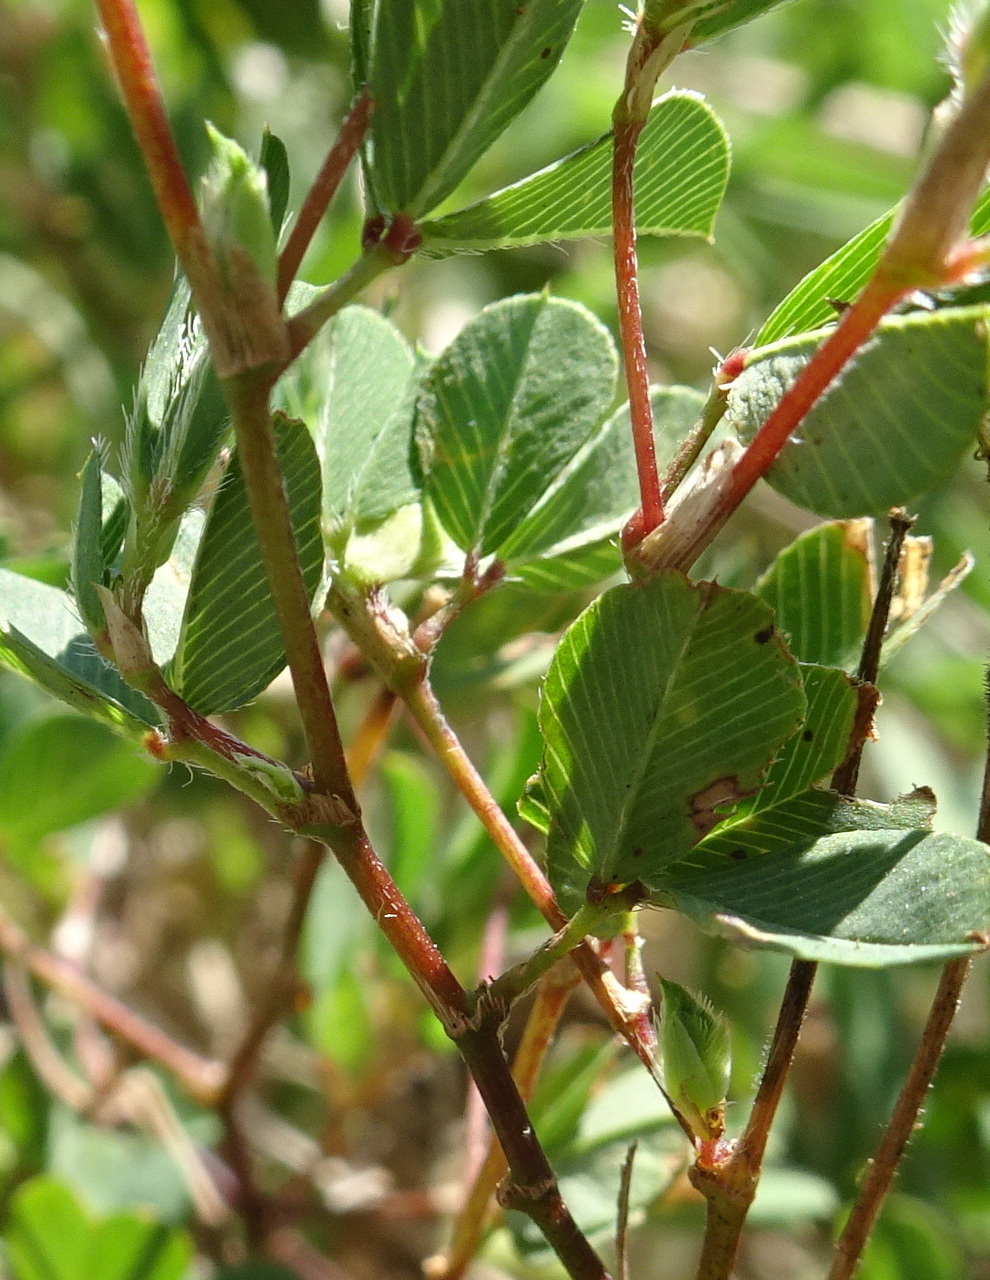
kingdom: Plantae
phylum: Tracheophyta
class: Magnoliopsida
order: Fabales
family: Fabaceae
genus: Kummerowia
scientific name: Kummerowia stipulacea
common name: Korean clover
